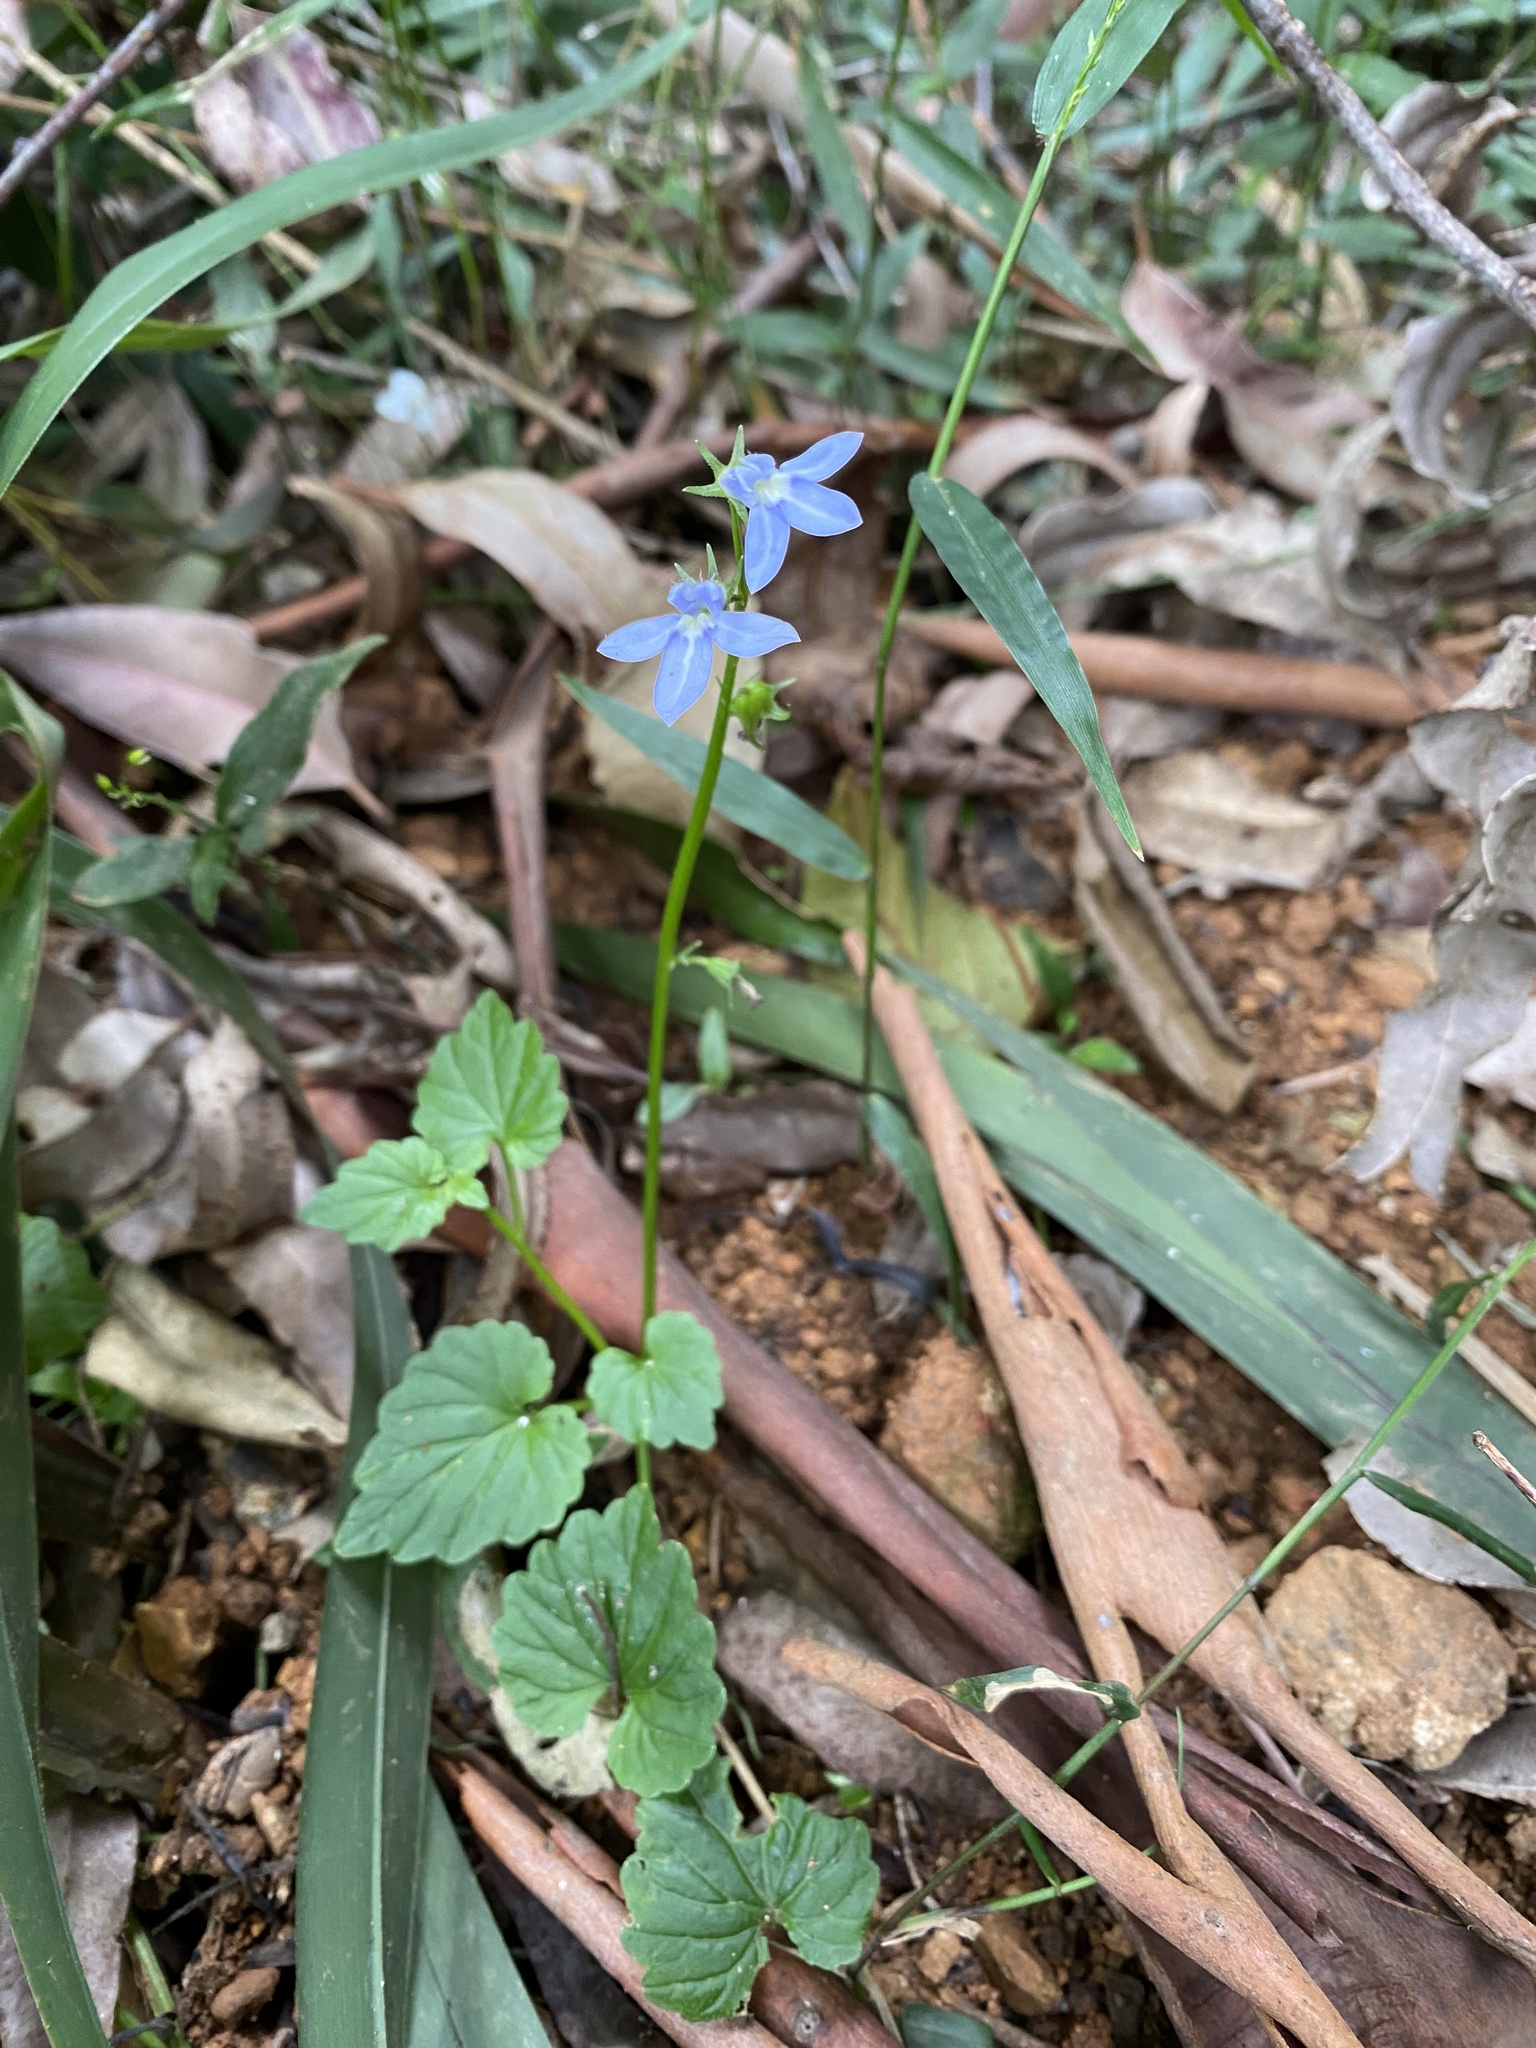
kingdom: Plantae
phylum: Tracheophyta
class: Magnoliopsida
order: Asterales
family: Campanulaceae
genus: Lobelia
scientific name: Lobelia trigonocaulis
